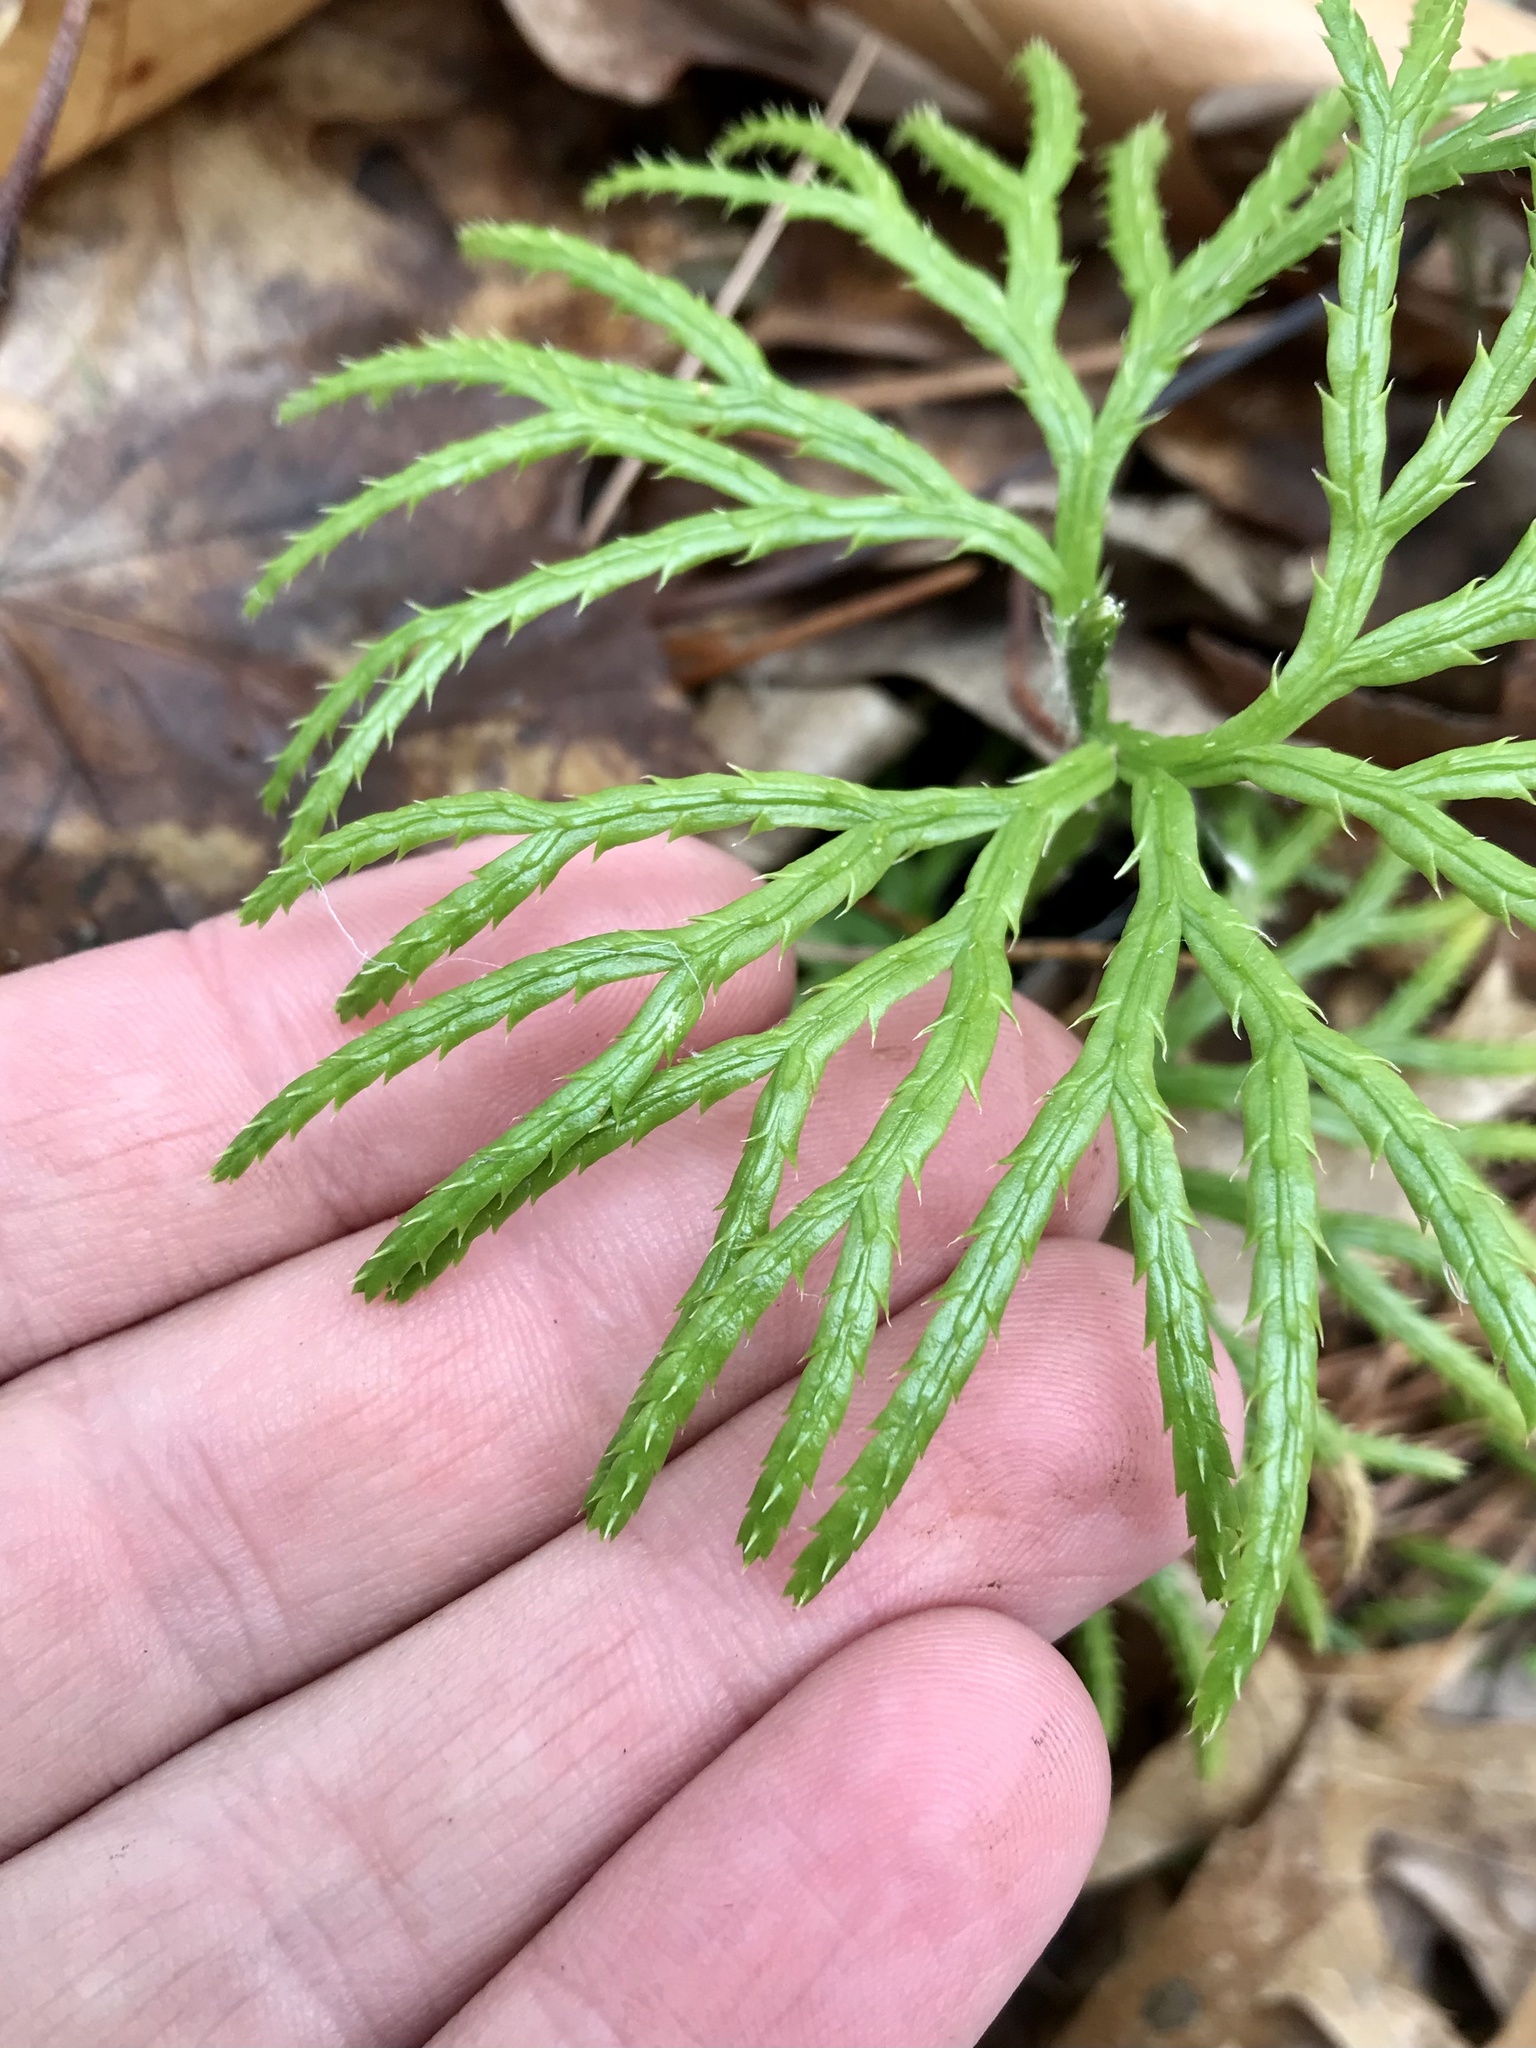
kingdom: Plantae
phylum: Tracheophyta
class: Lycopodiopsida
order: Lycopodiales
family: Lycopodiaceae
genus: Diphasiastrum
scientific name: Diphasiastrum digitatum
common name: Southern running-pine
